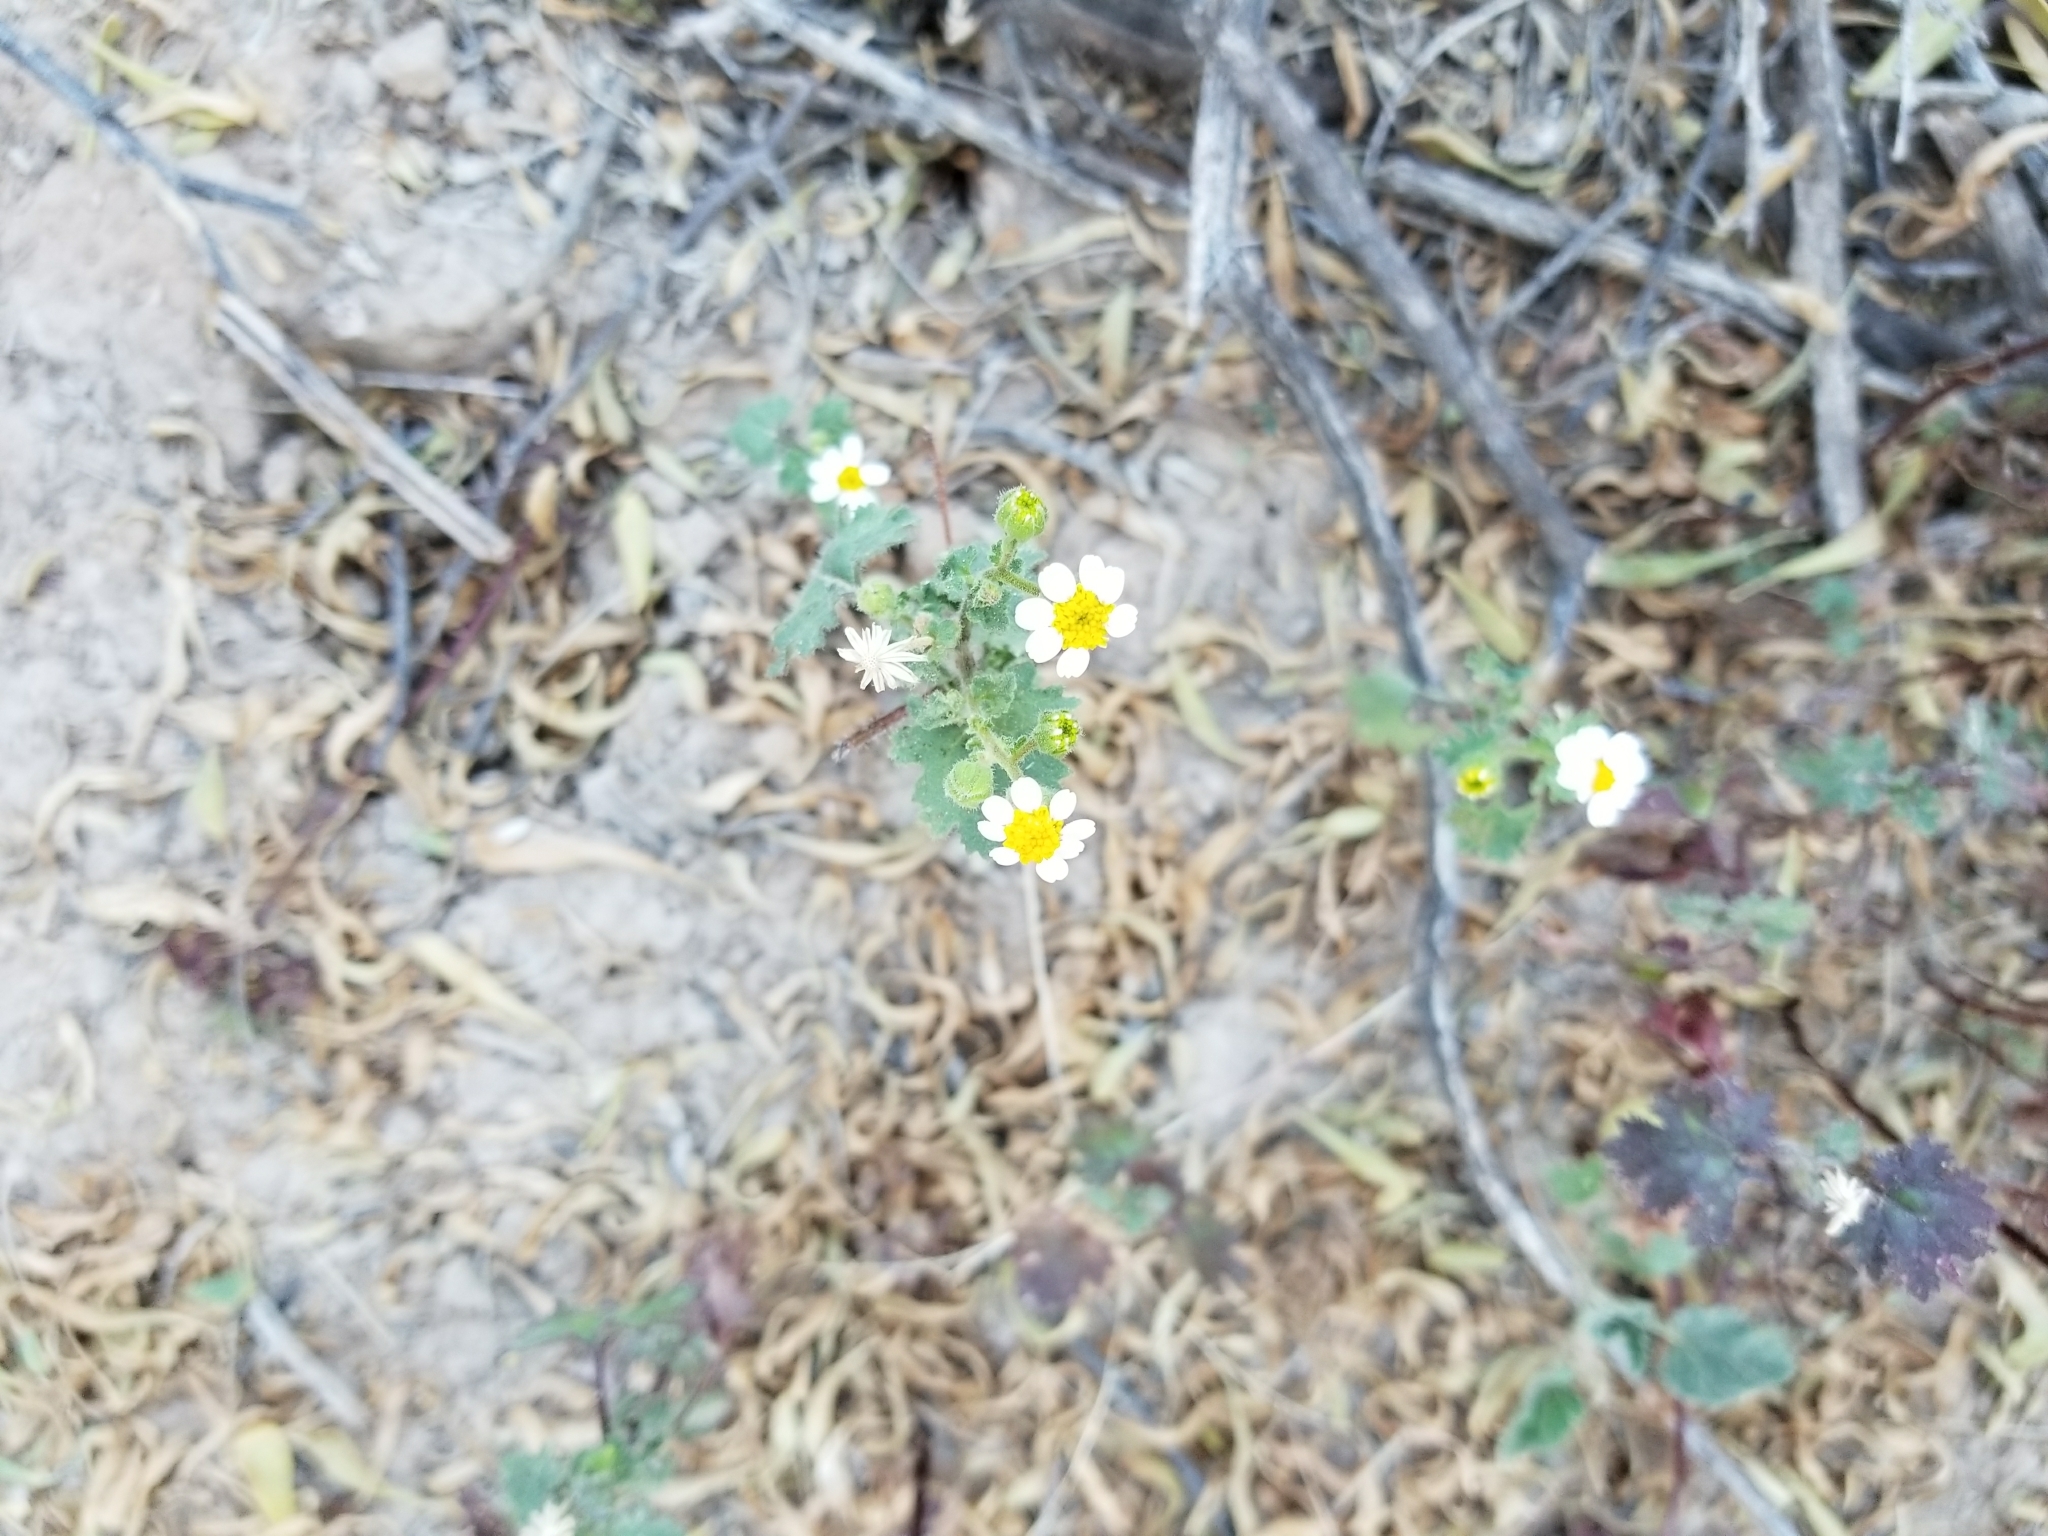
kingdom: Plantae
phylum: Tracheophyta
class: Magnoliopsida
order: Asterales
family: Asteraceae
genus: Laphamia
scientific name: Laphamia emoryi
